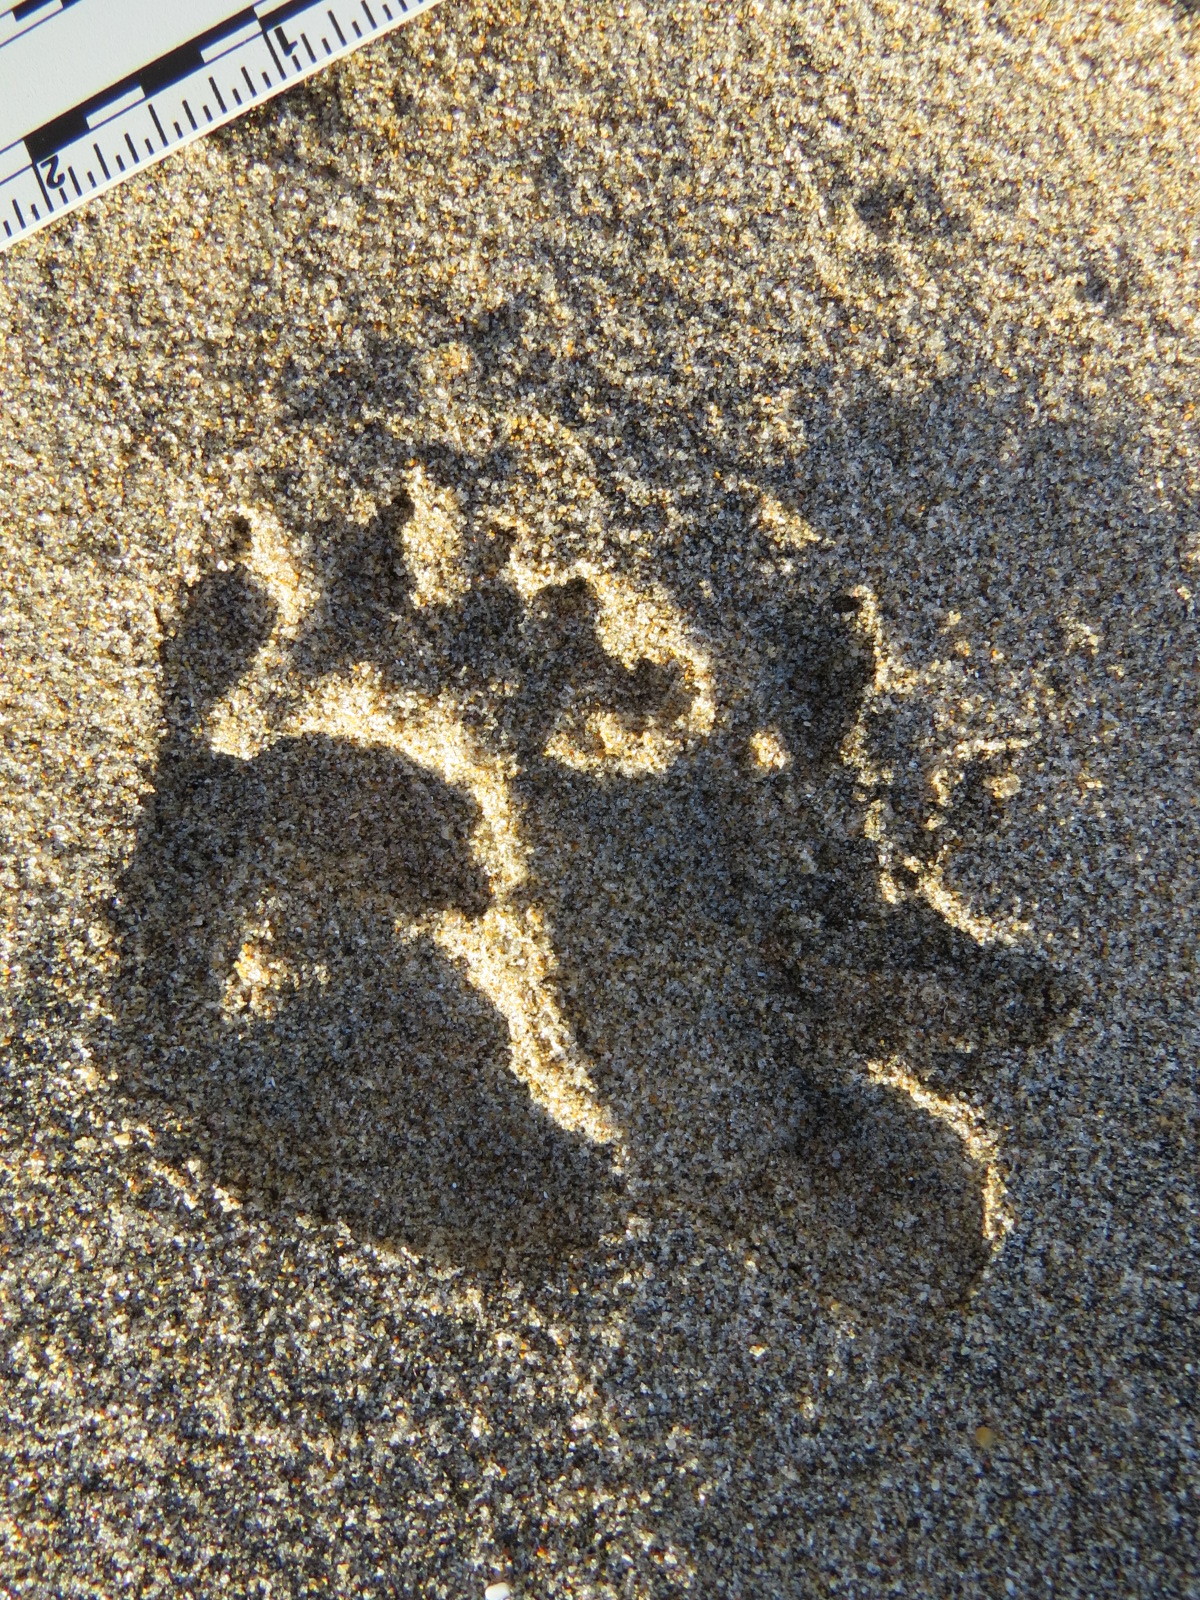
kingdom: Animalia
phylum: Chordata
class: Mammalia
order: Didelphimorphia
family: Didelphidae
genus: Didelphis
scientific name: Didelphis virginiana
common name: Virginia opossum
